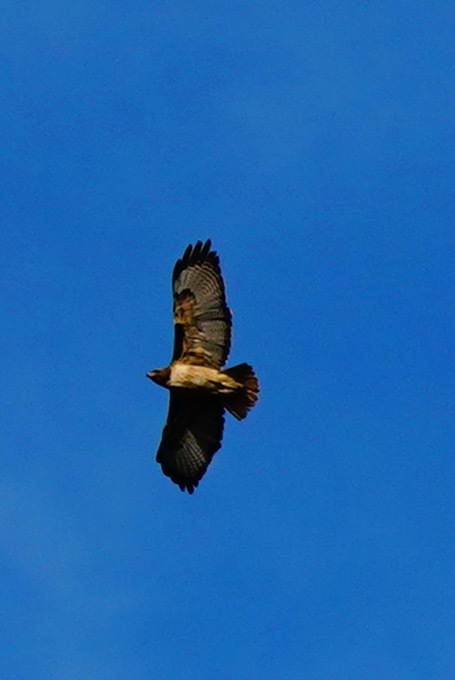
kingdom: Animalia
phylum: Chordata
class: Aves
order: Accipitriformes
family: Accipitridae
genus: Buteo
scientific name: Buteo jamaicensis
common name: Red-tailed hawk
